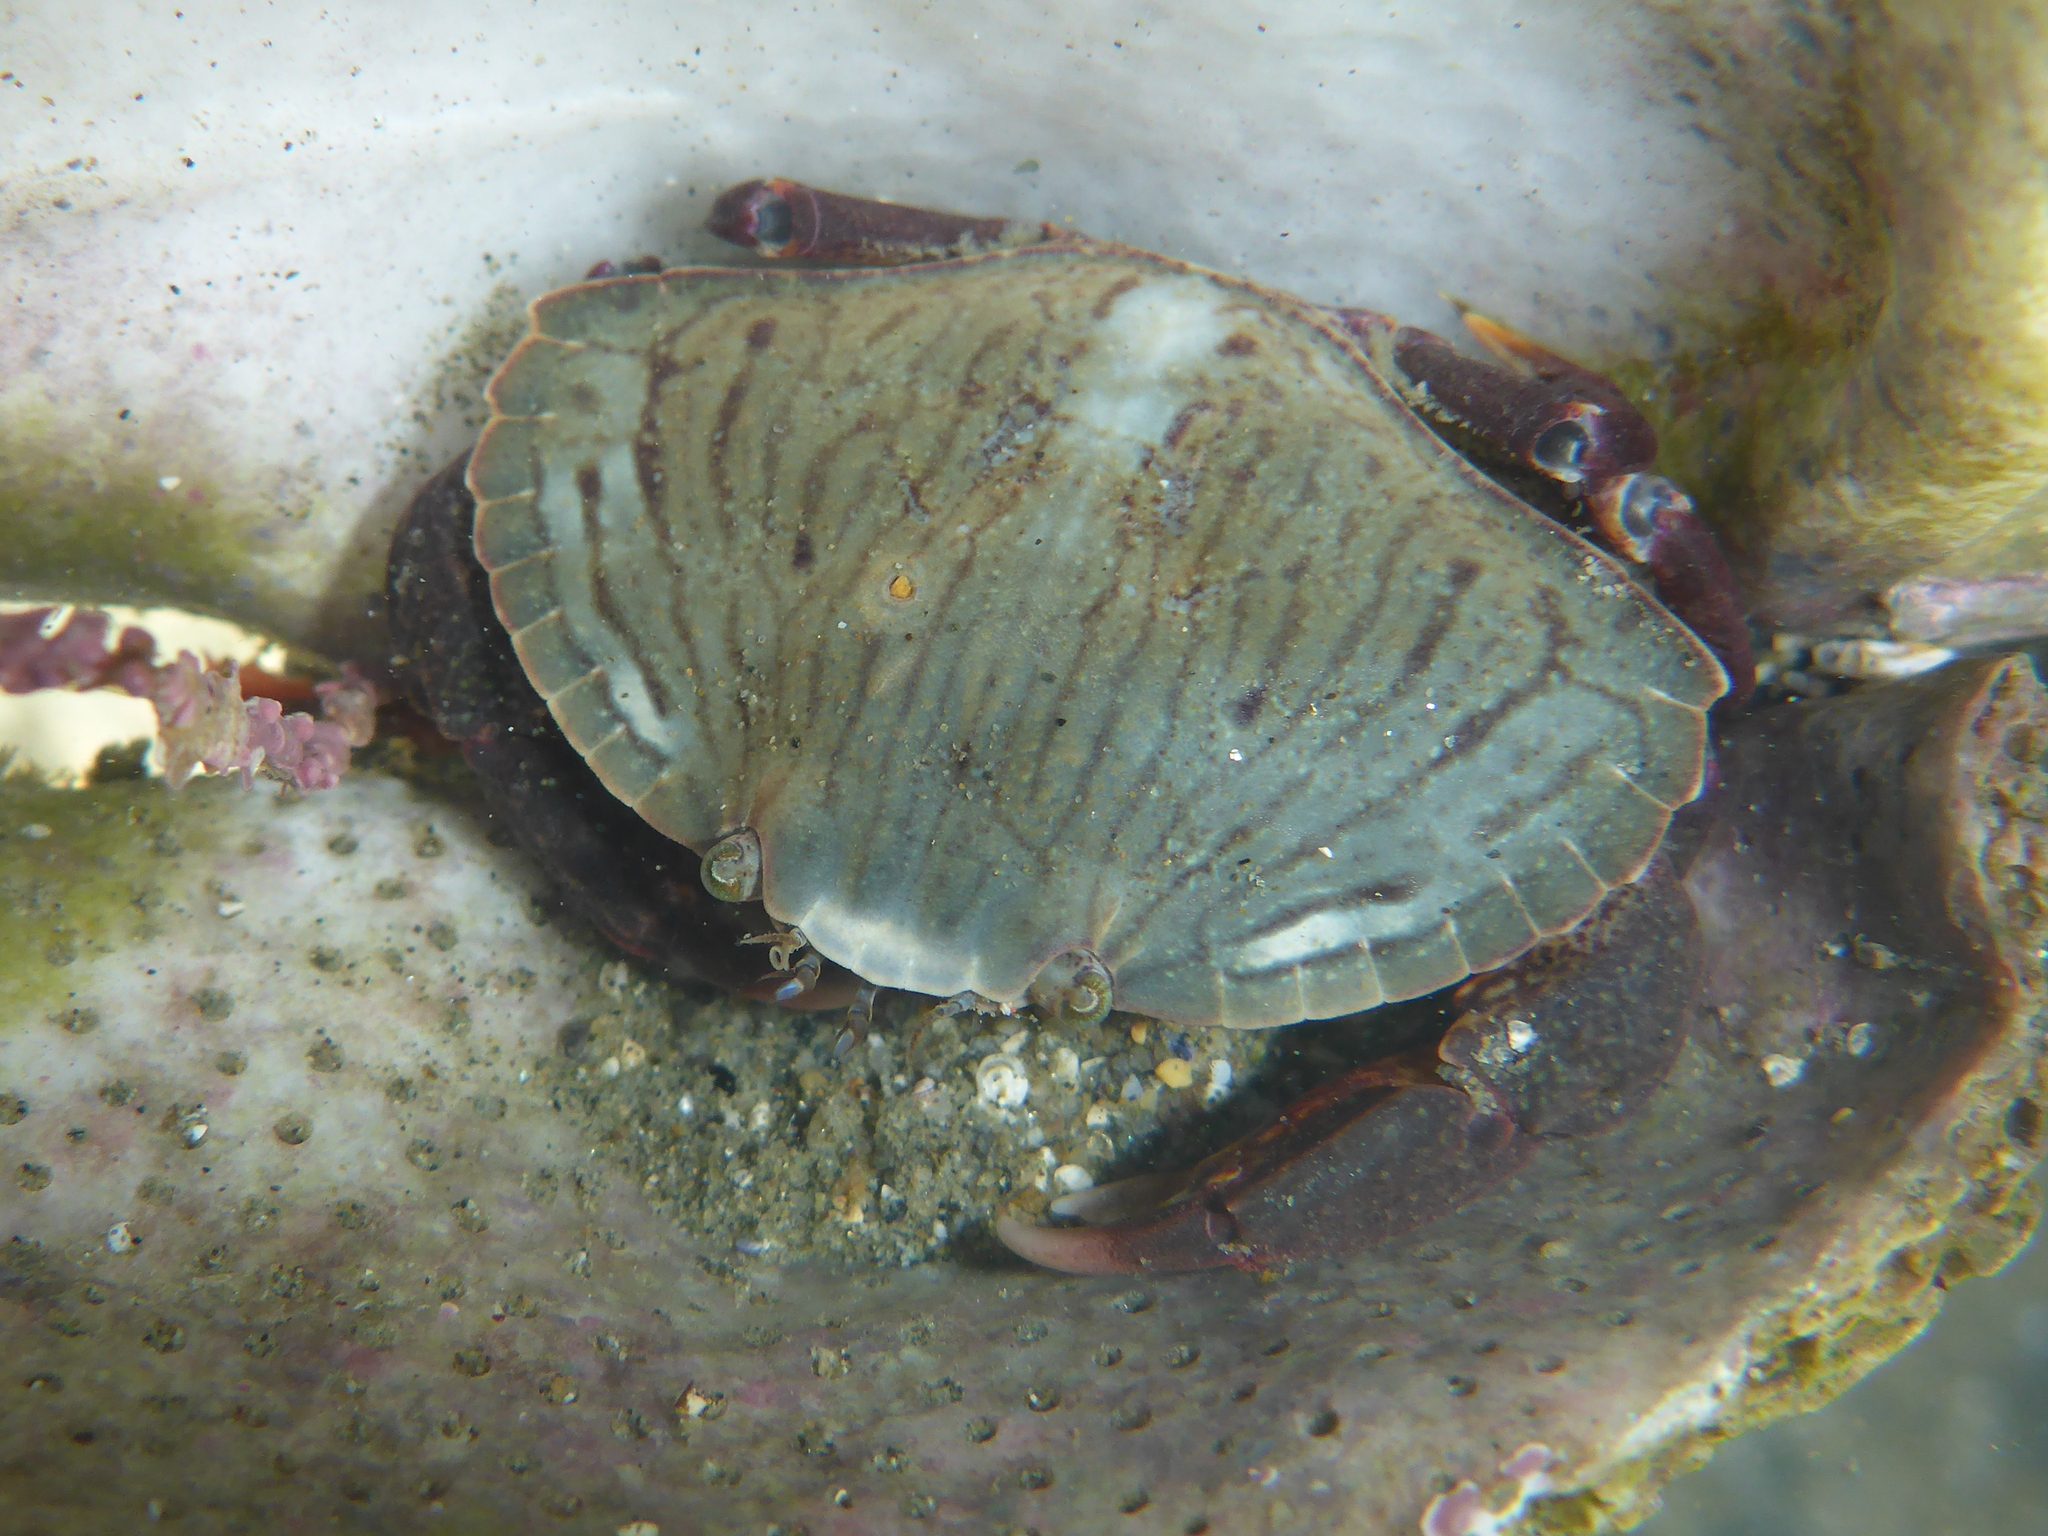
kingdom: Animalia
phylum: Arthropoda
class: Malacostraca
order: Decapoda
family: Cancridae
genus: Cancer
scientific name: Cancer productus
